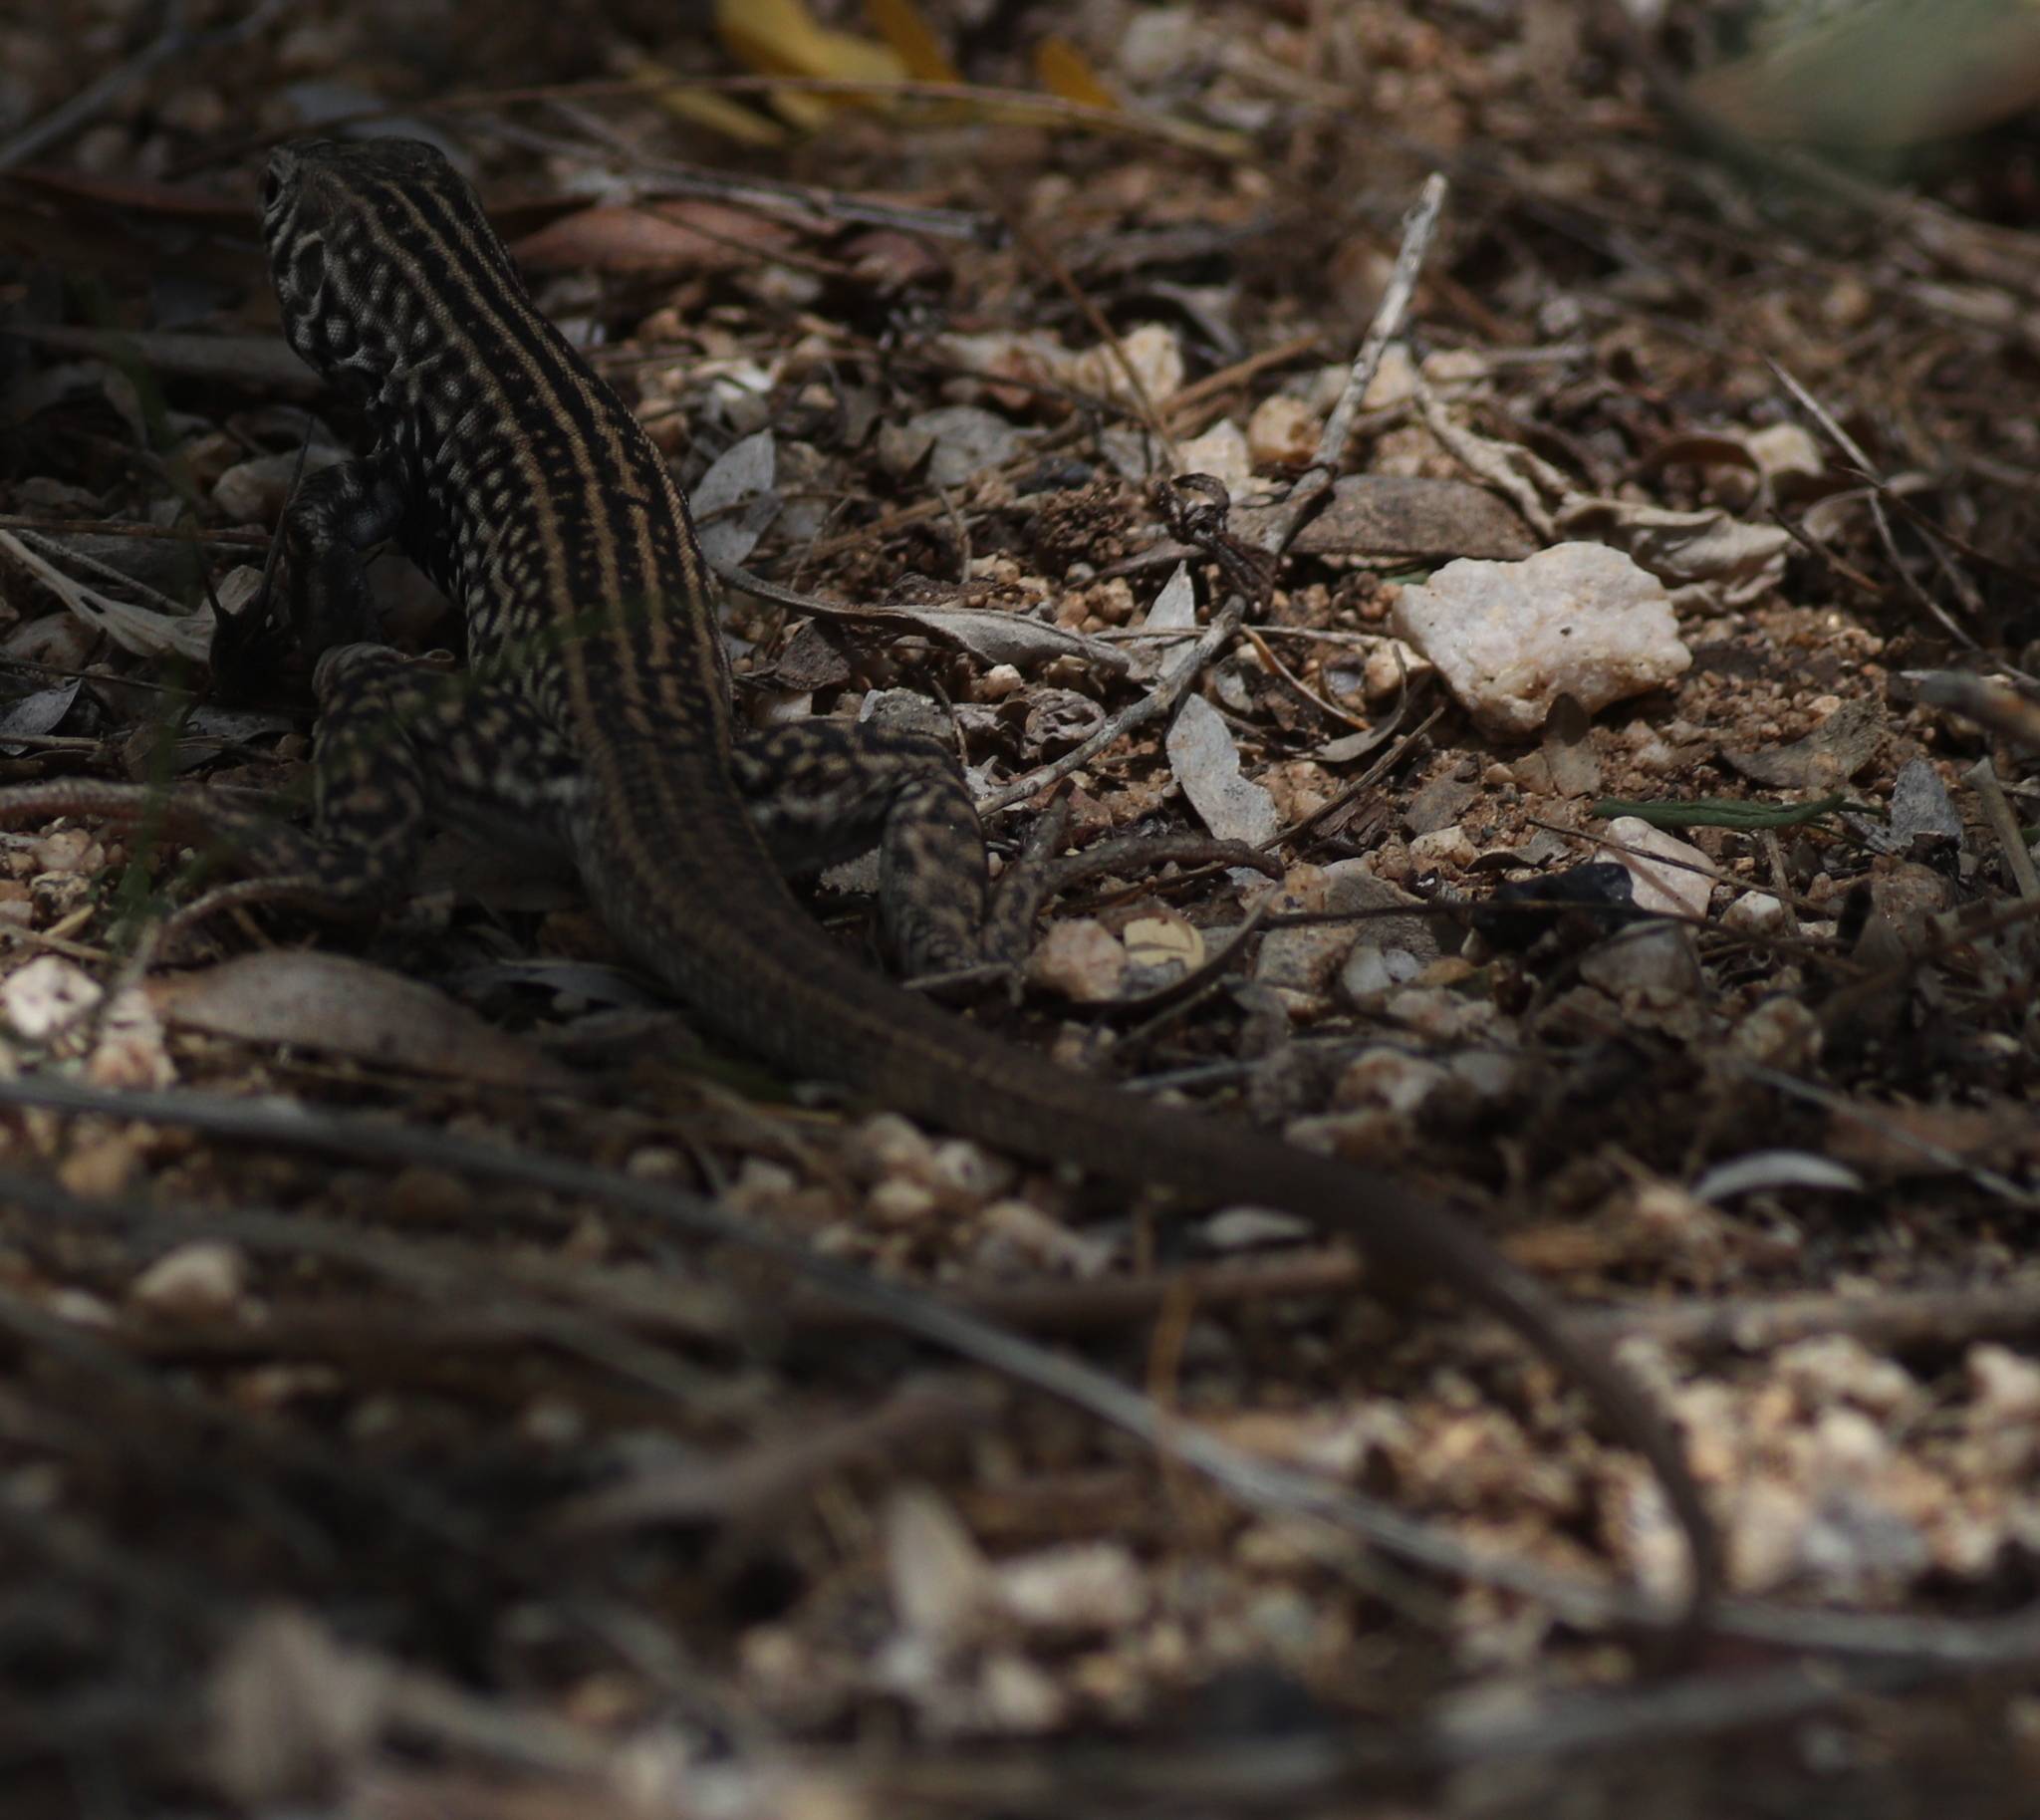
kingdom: Animalia
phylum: Chordata
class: Squamata
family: Teiidae
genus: Aspidoscelis
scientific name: Aspidoscelis tigris
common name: Tiger whiptail
